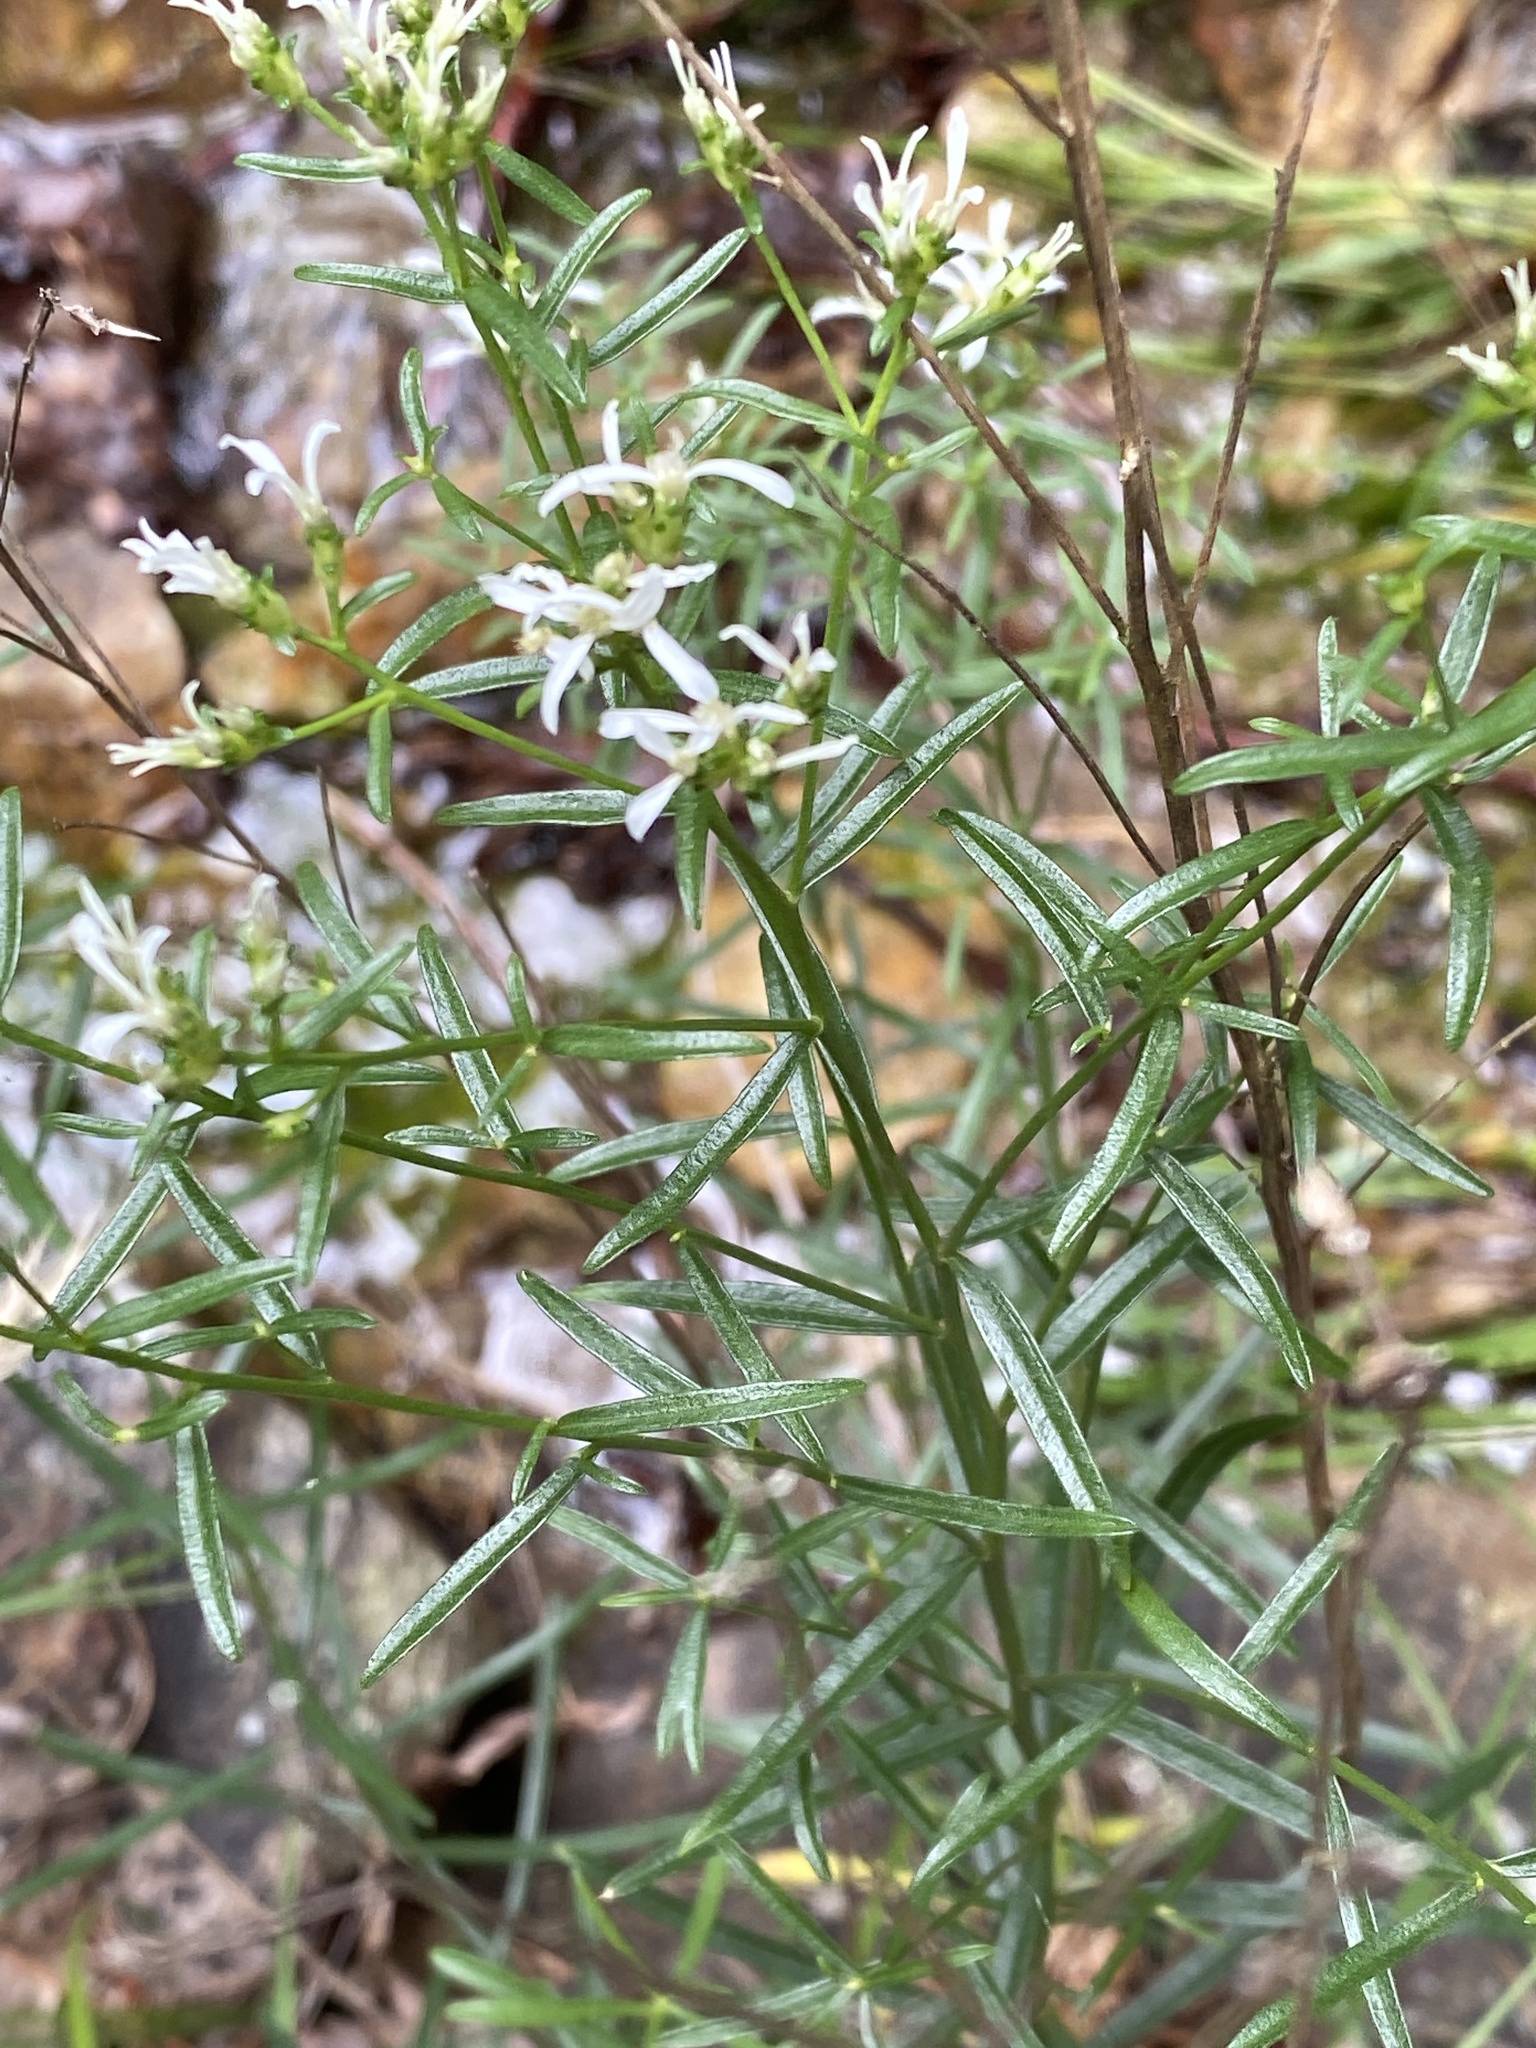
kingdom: Plantae
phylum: Tracheophyta
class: Magnoliopsida
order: Asterales
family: Asteraceae
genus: Sericocarpus
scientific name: Sericocarpus linifolius
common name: Narrow-leaf aster
